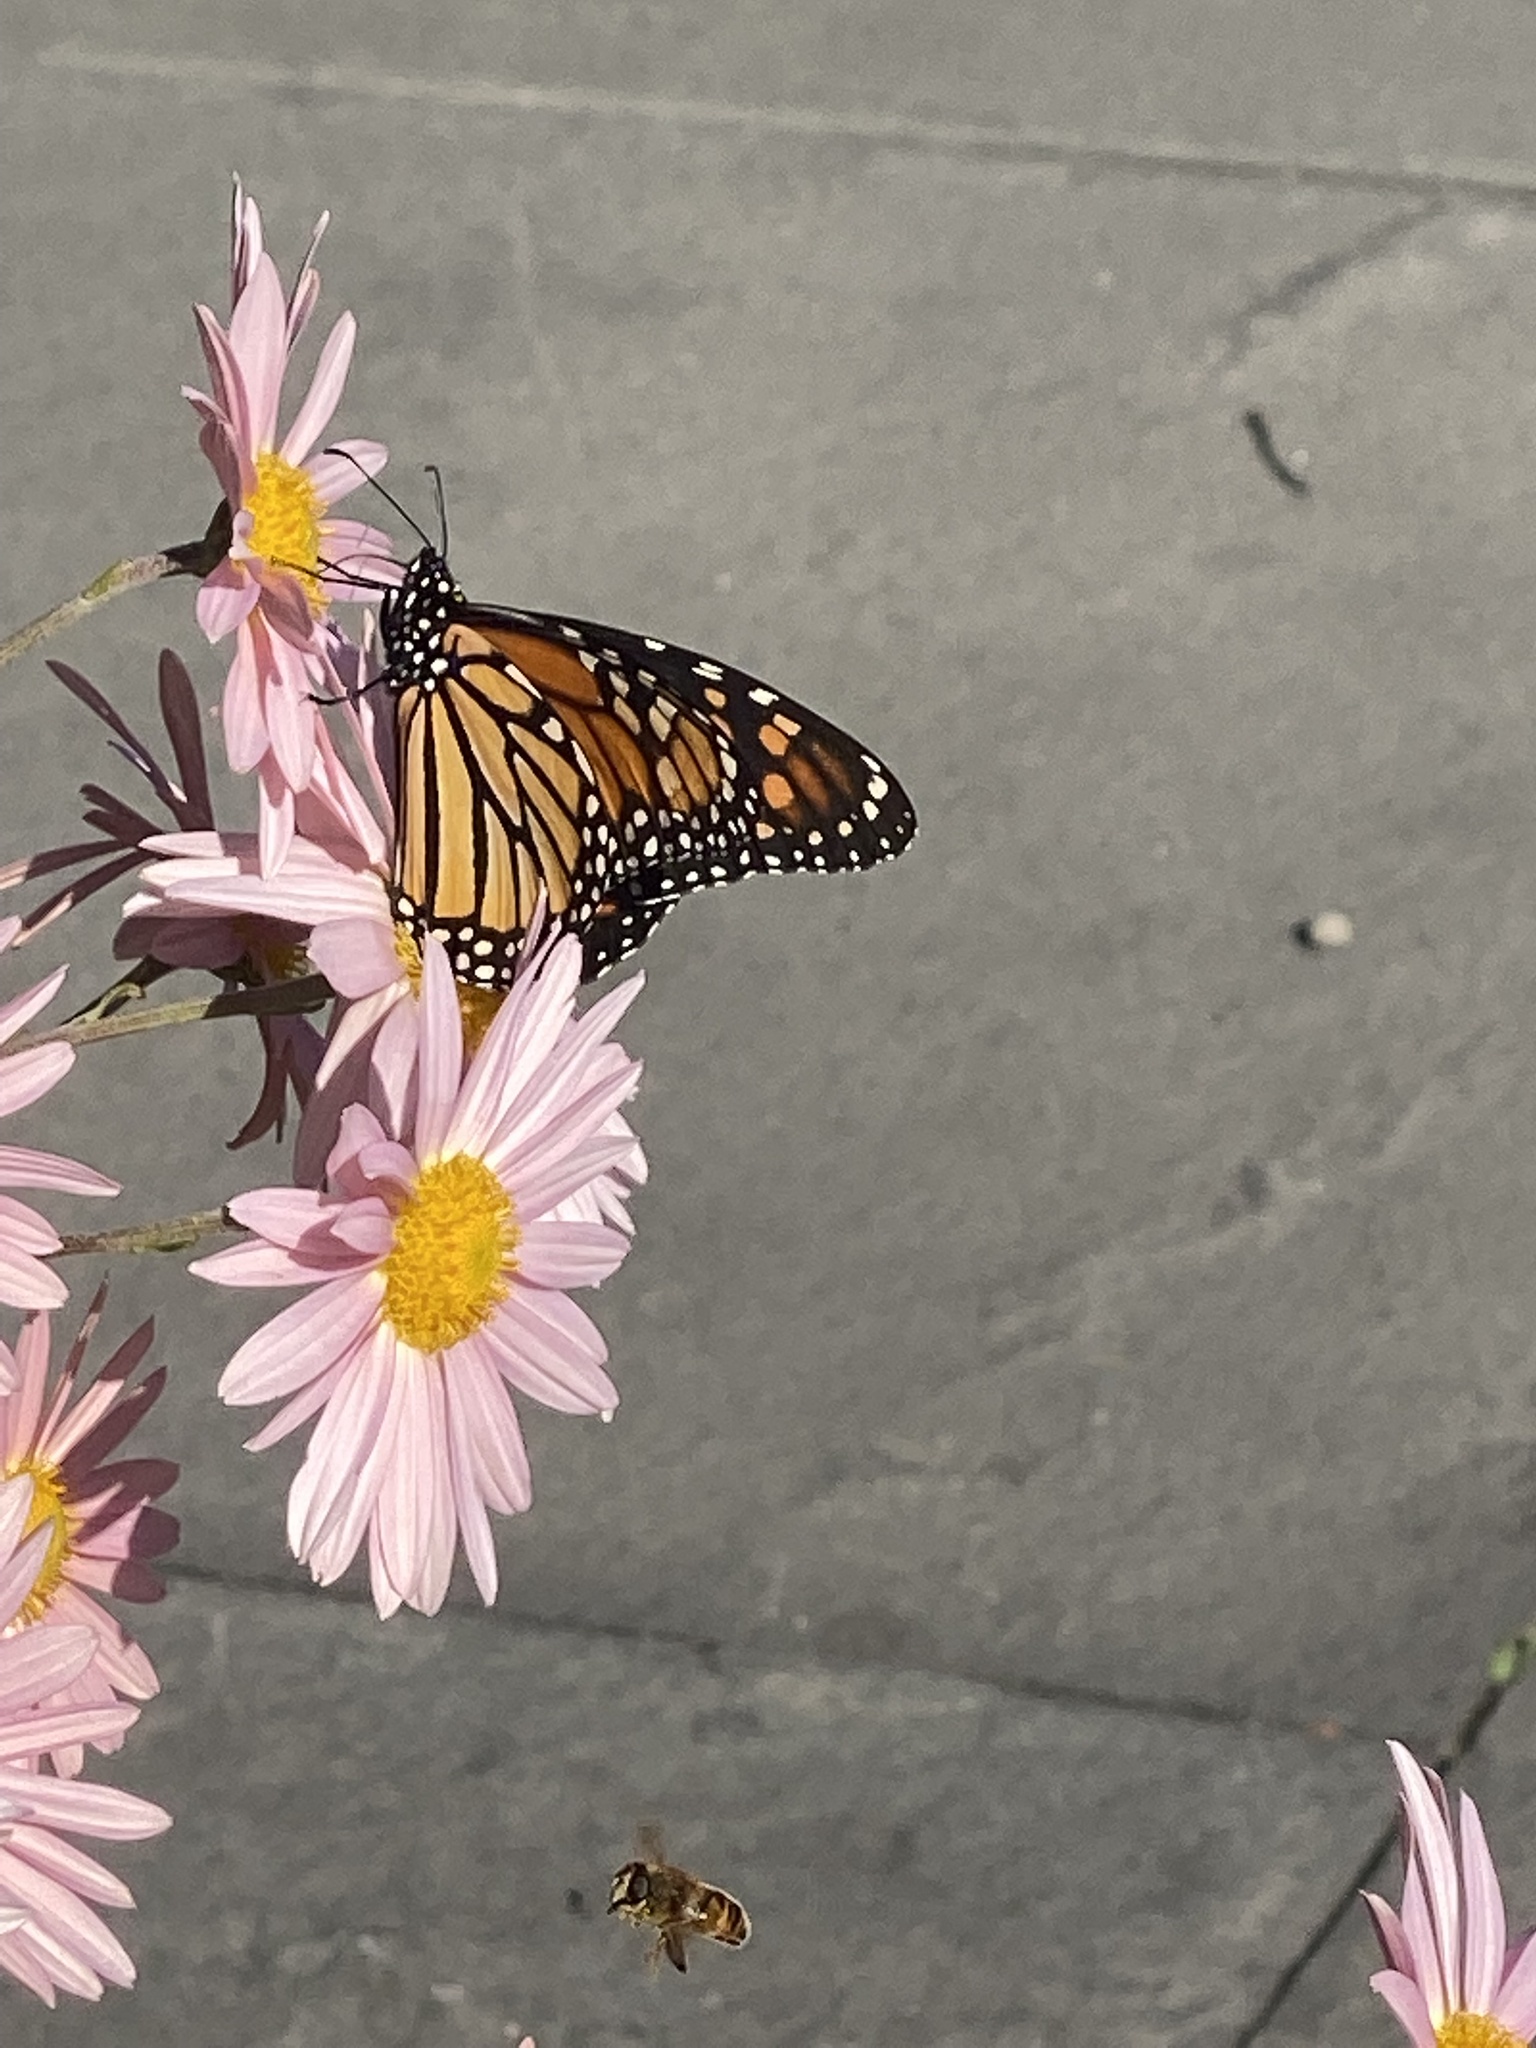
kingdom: Animalia
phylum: Arthropoda
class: Insecta
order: Lepidoptera
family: Nymphalidae
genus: Danaus
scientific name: Danaus plexippus
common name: Monarch
